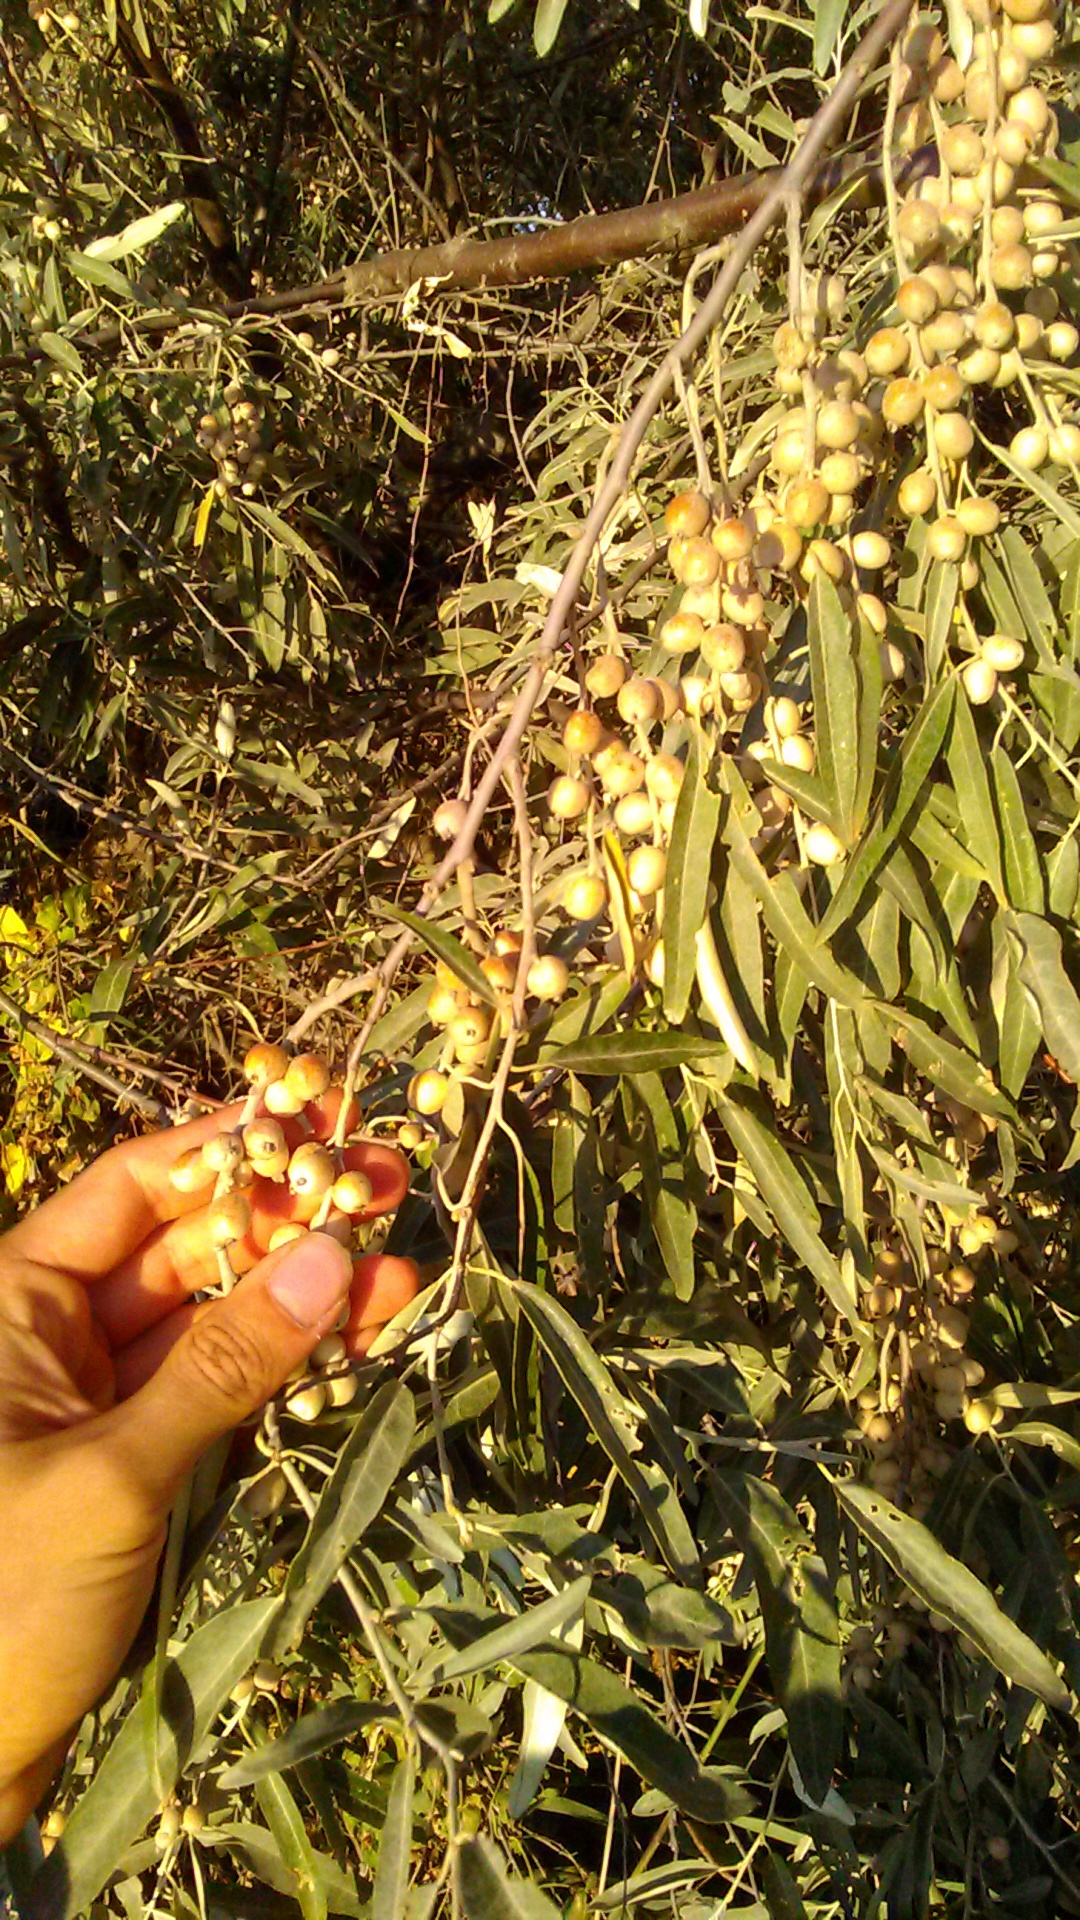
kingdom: Plantae
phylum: Tracheophyta
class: Magnoliopsida
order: Rosales
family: Elaeagnaceae
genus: Elaeagnus
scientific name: Elaeagnus angustifolia
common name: Russian olive
